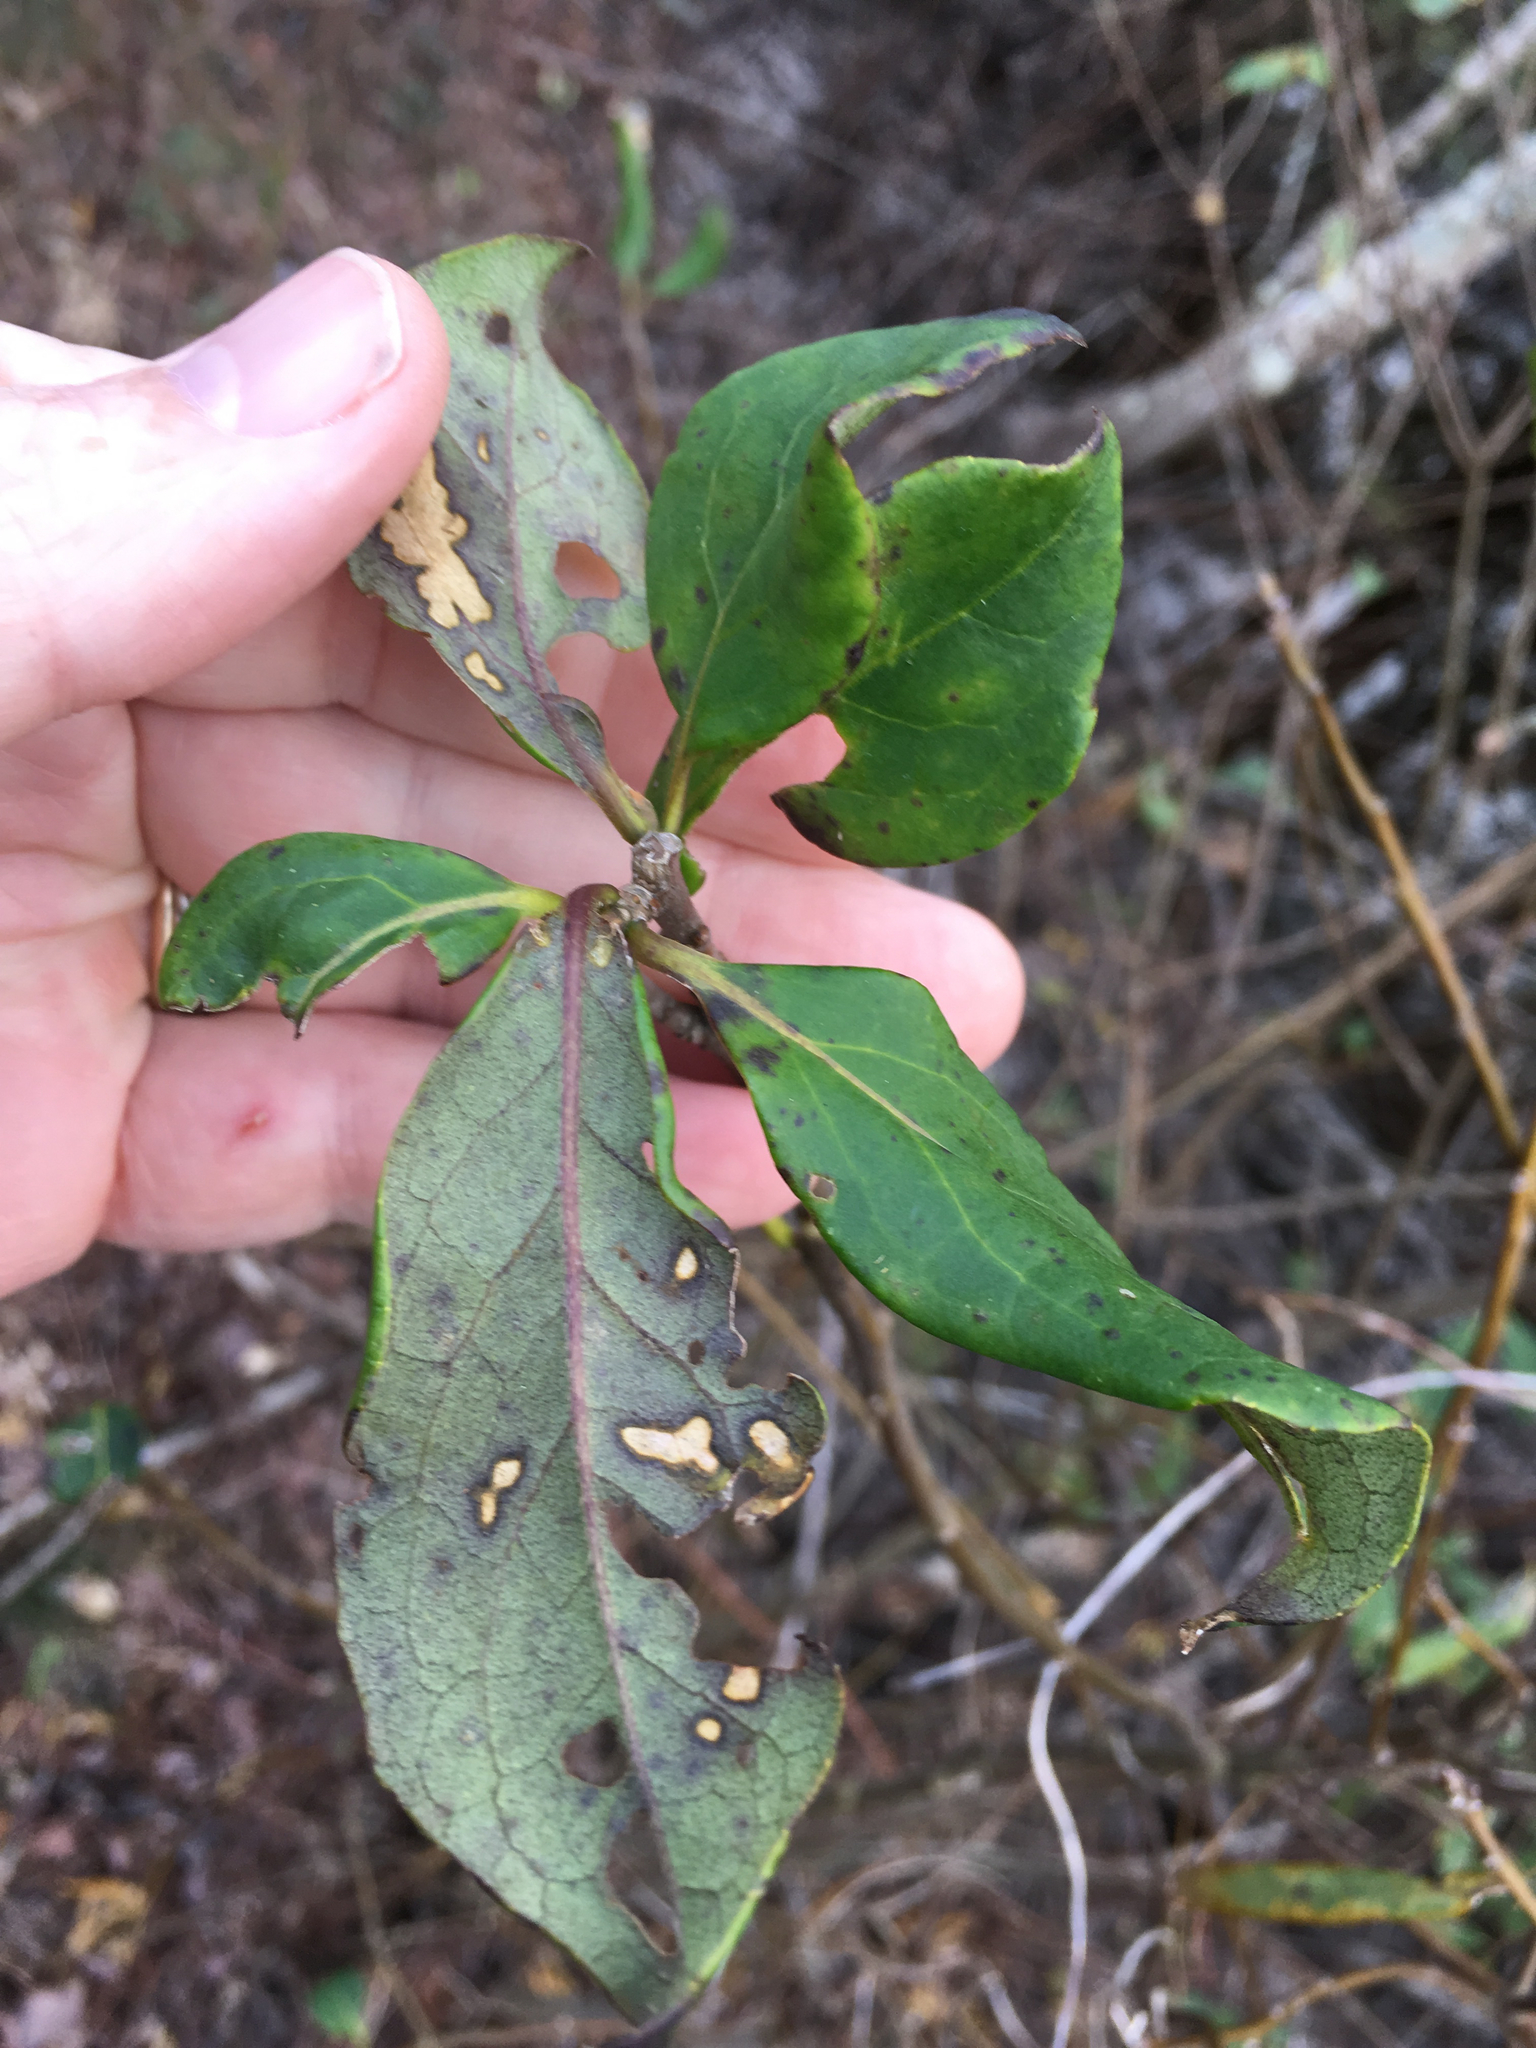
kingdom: Plantae
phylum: Tracheophyta
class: Magnoliopsida
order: Ericales
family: Symplocaceae
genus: Symplocos
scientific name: Symplocos tinctoria
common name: Horse-sugar
